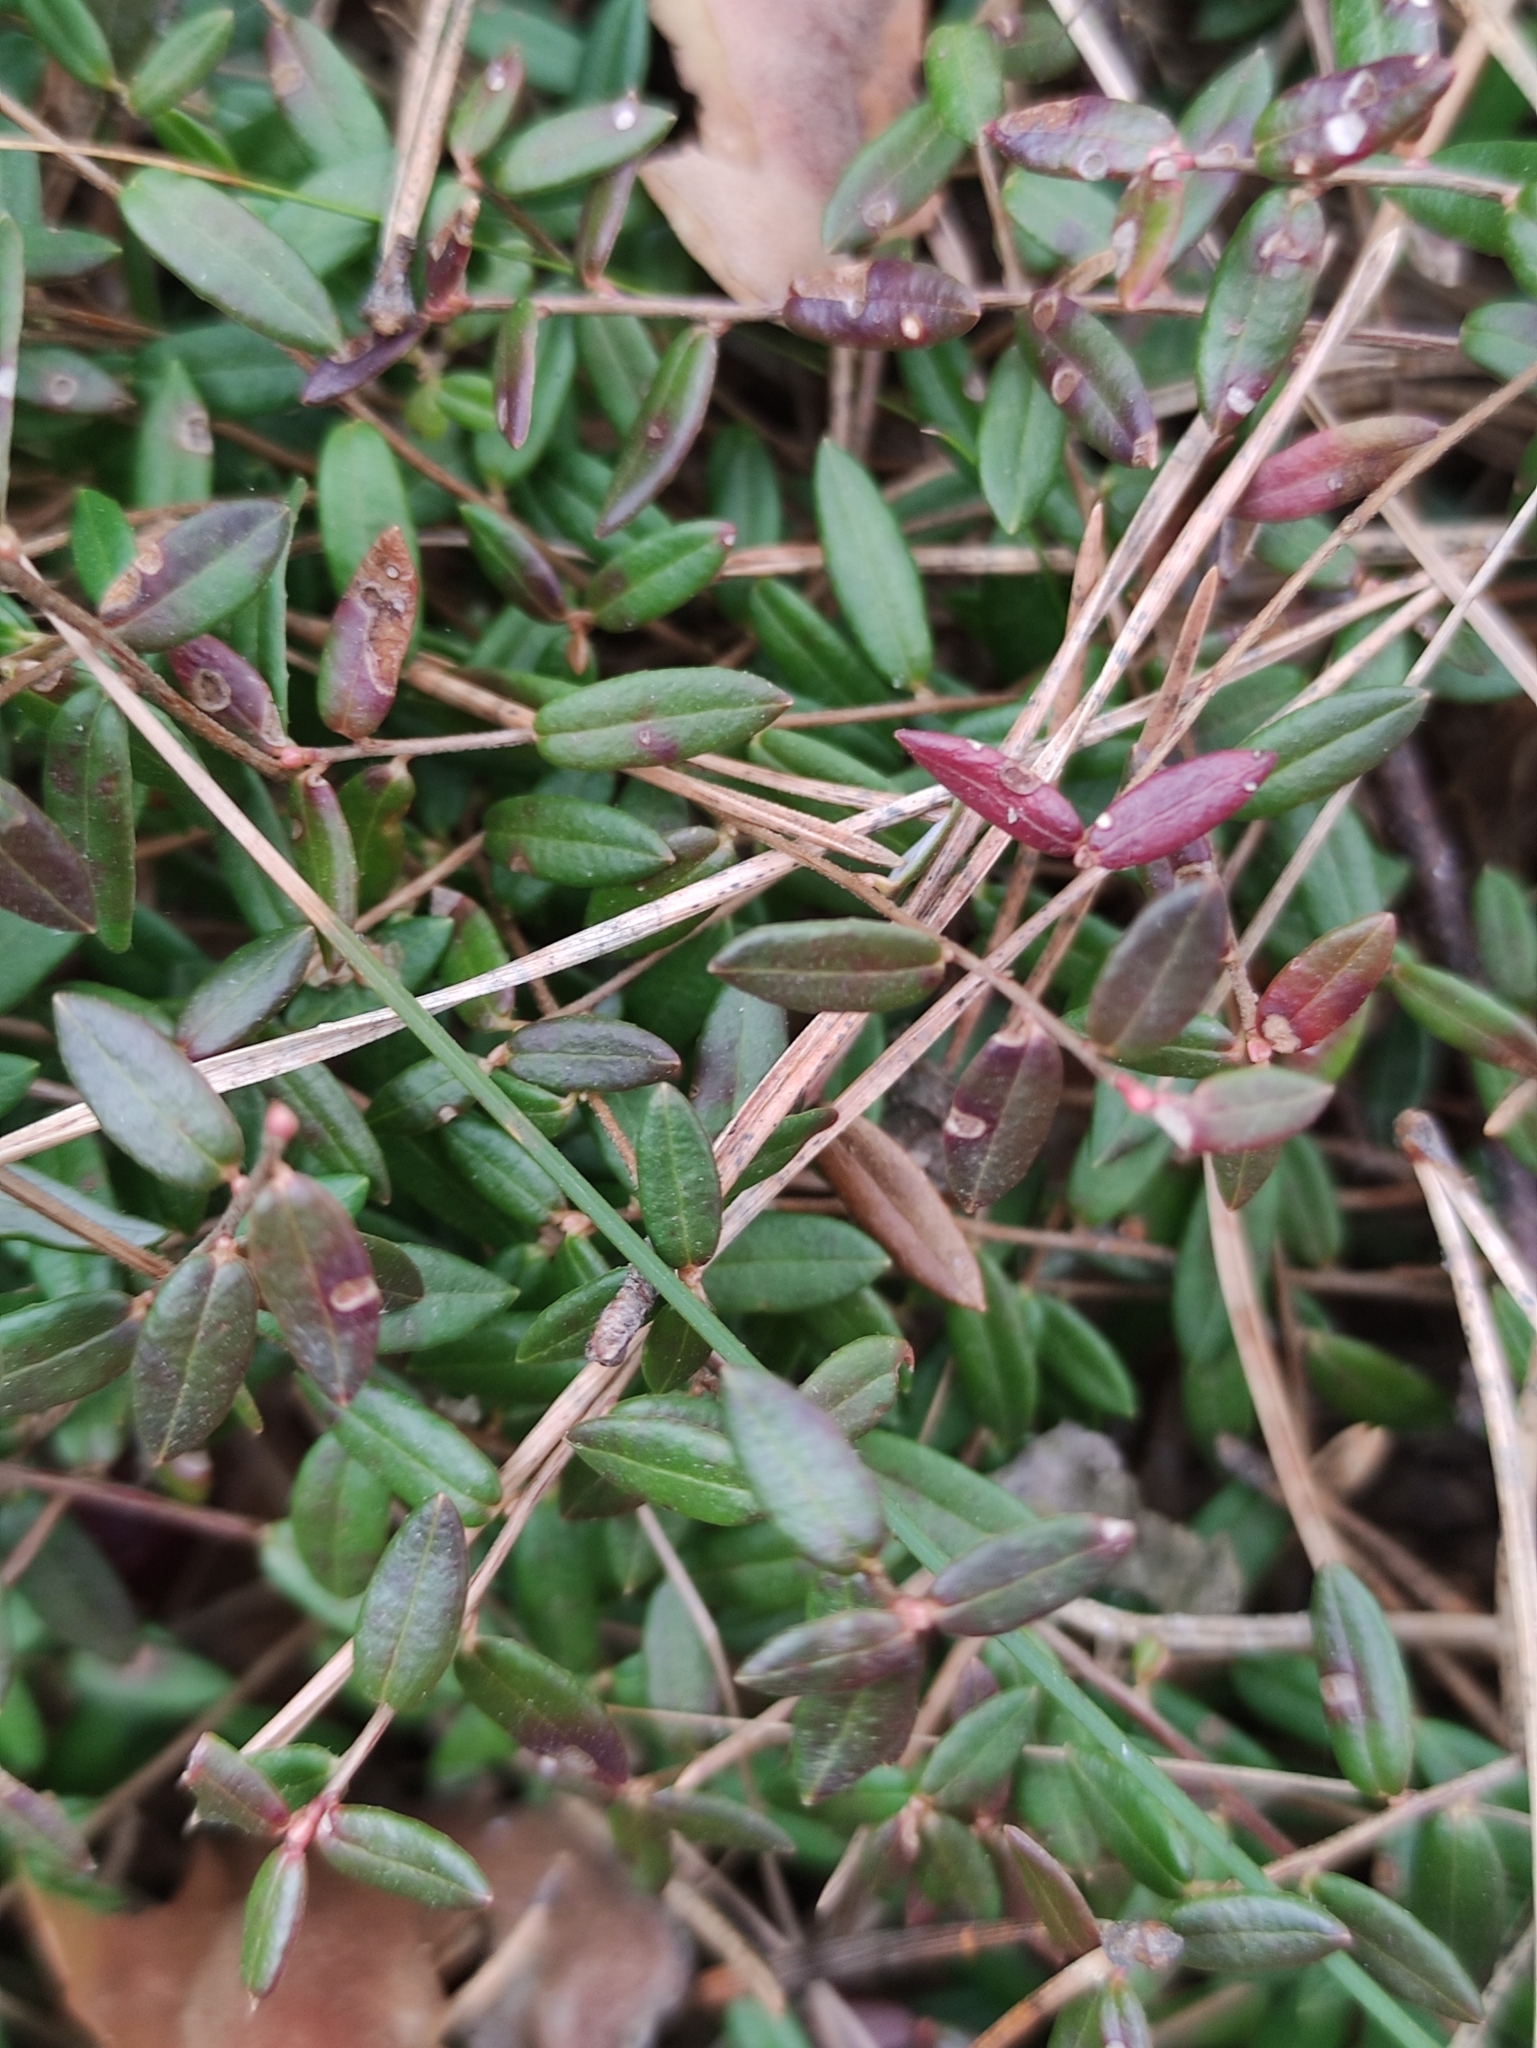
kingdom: Plantae
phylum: Tracheophyta
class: Magnoliopsida
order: Ericales
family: Ericaceae
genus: Vaccinium
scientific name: Vaccinium oxycoccos
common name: Cranberry
